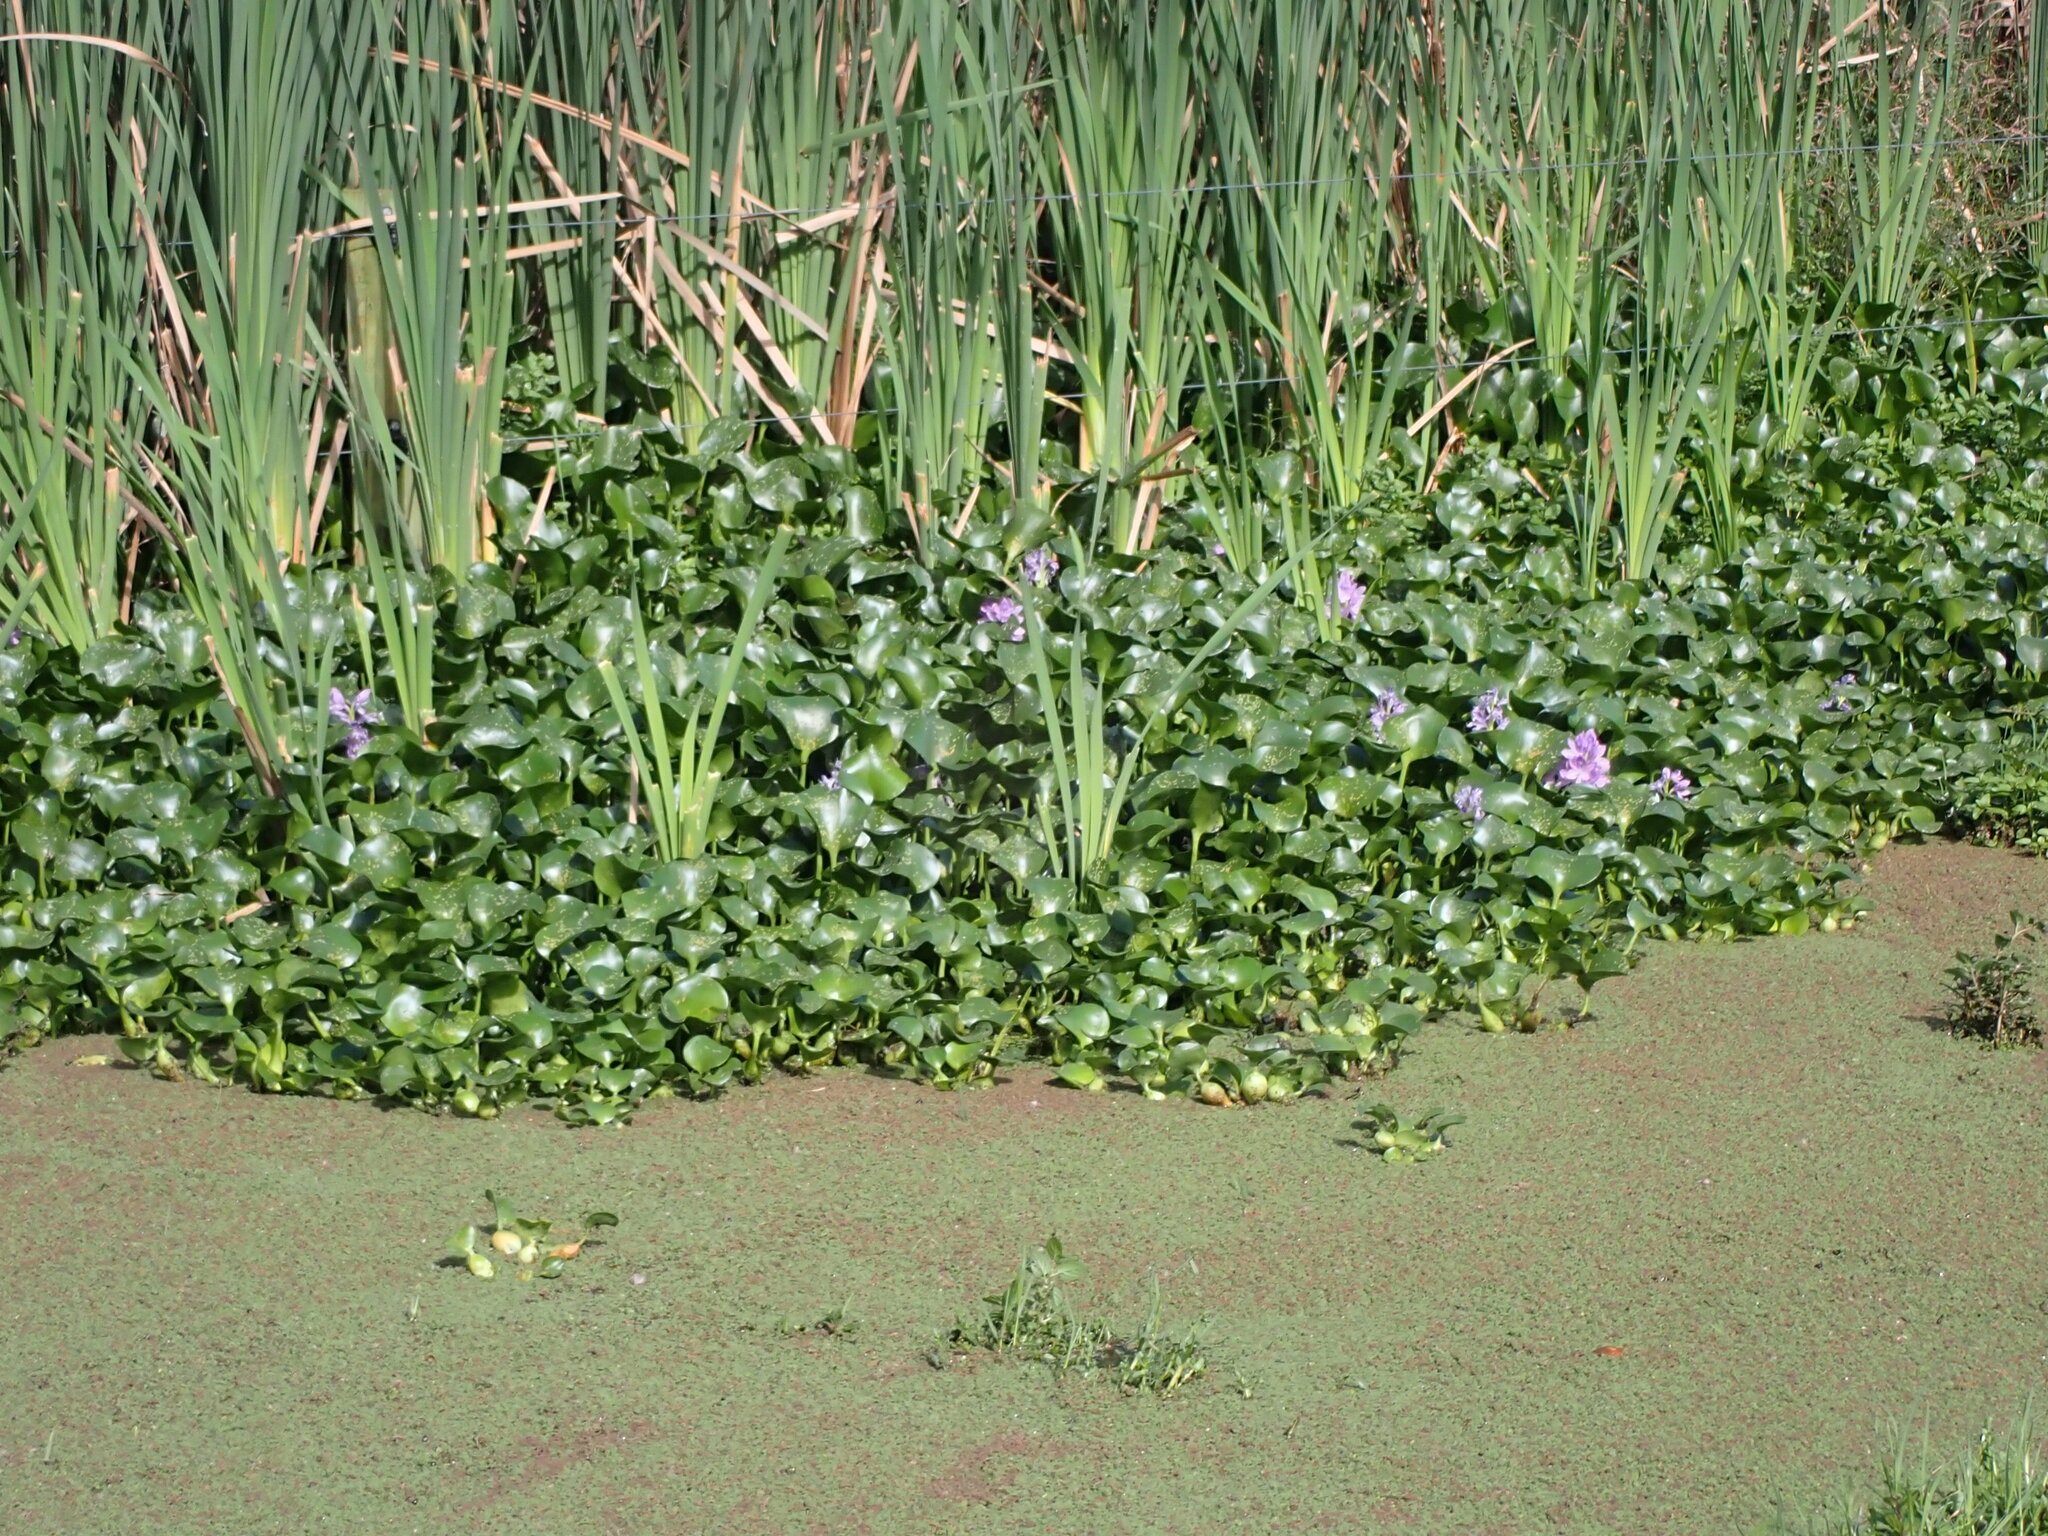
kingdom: Plantae
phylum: Tracheophyta
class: Liliopsida
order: Commelinales
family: Pontederiaceae
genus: Pontederia
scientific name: Pontederia crassipes
